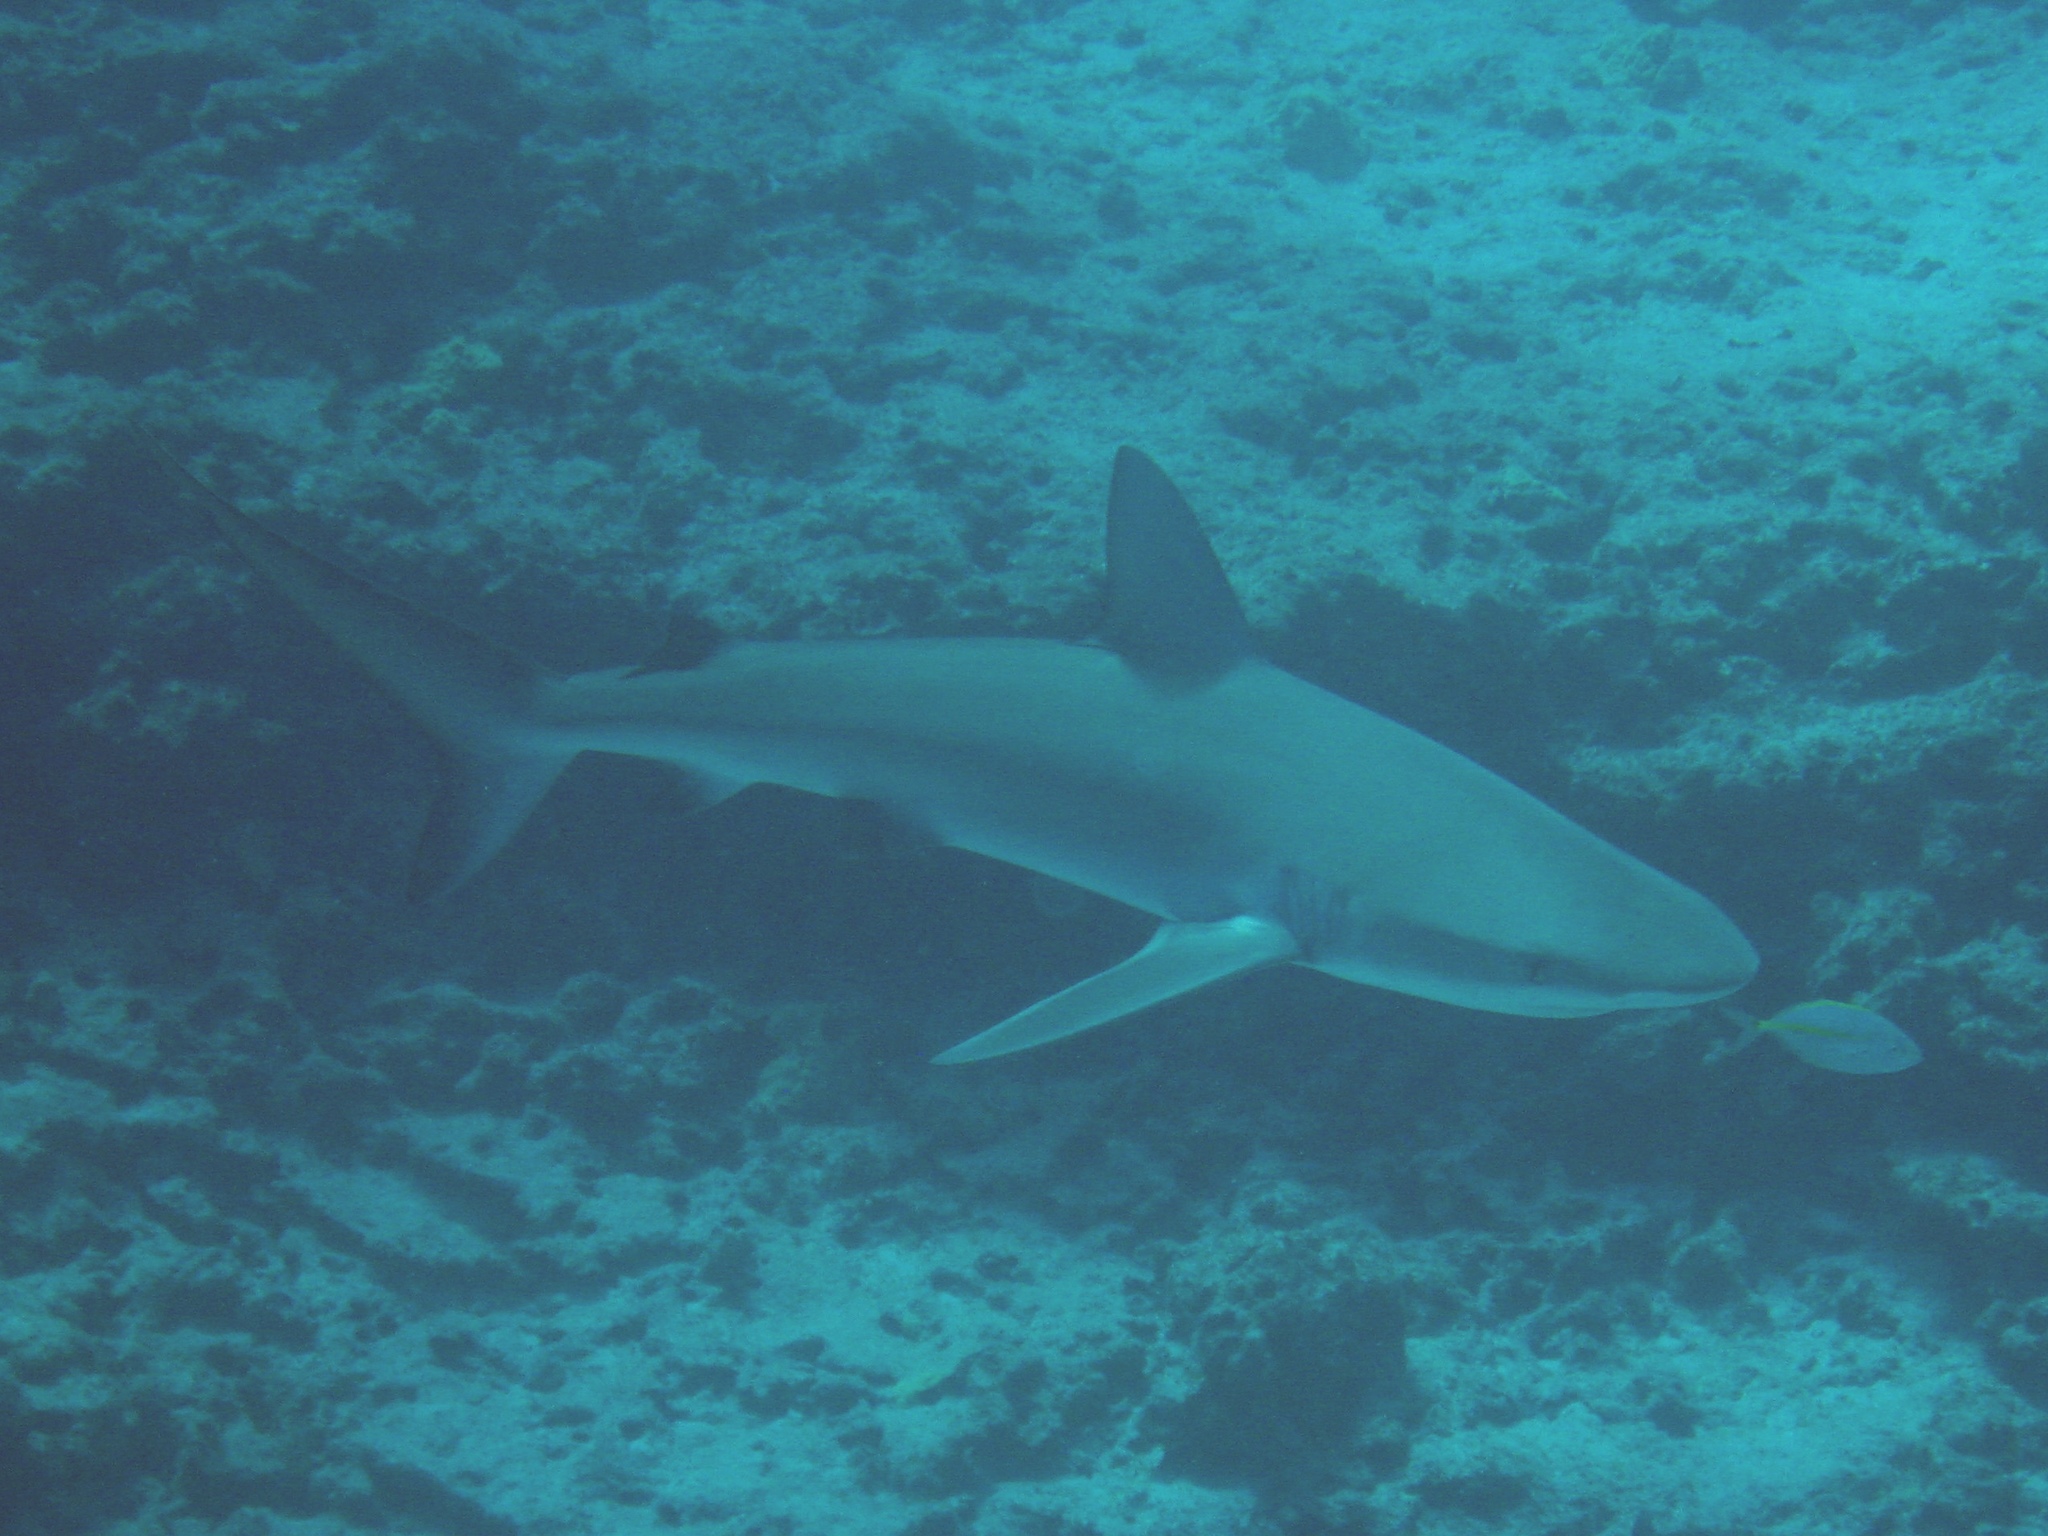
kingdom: Animalia
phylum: Chordata
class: Elasmobranchii
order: Carcharhiniformes
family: Carcharhinidae
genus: Carcharhinus
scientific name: Carcharhinus galapagensis
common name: Galapagos shark
